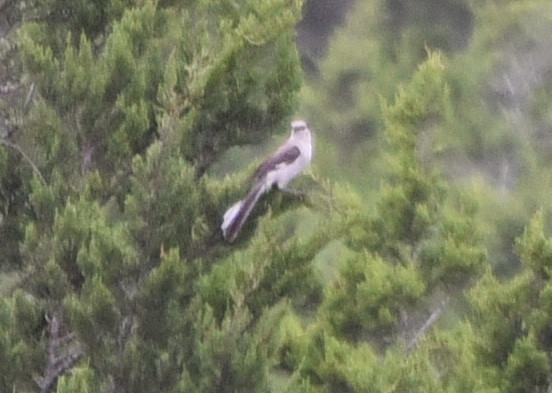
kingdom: Animalia
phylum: Chordata
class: Aves
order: Passeriformes
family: Mimidae
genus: Mimus
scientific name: Mimus polyglottos
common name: Northern mockingbird
